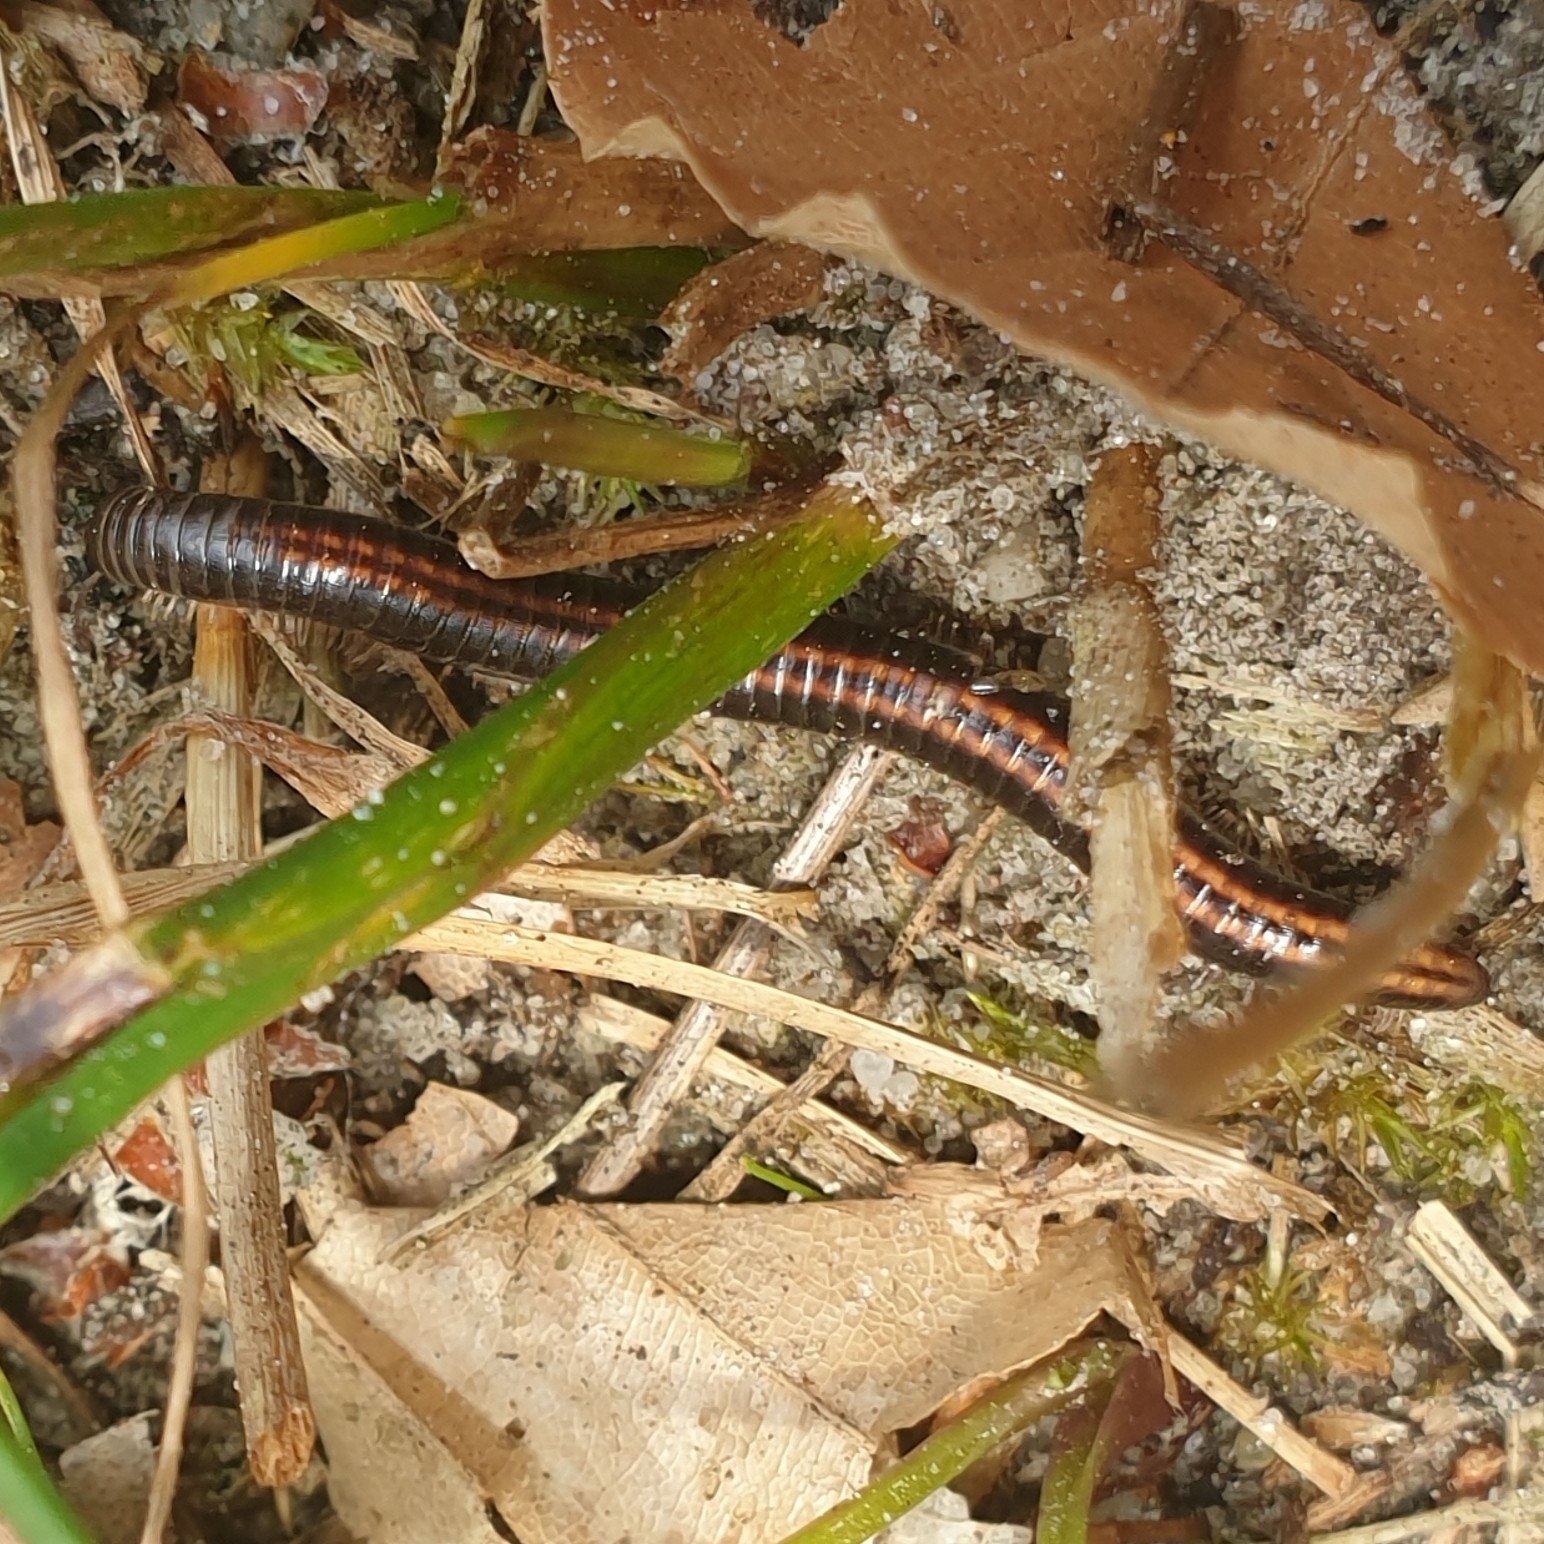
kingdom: Animalia
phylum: Arthropoda
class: Diplopoda
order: Julida
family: Julidae
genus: Ommatoiulus
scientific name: Ommatoiulus sabulosus
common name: Striped millipede
